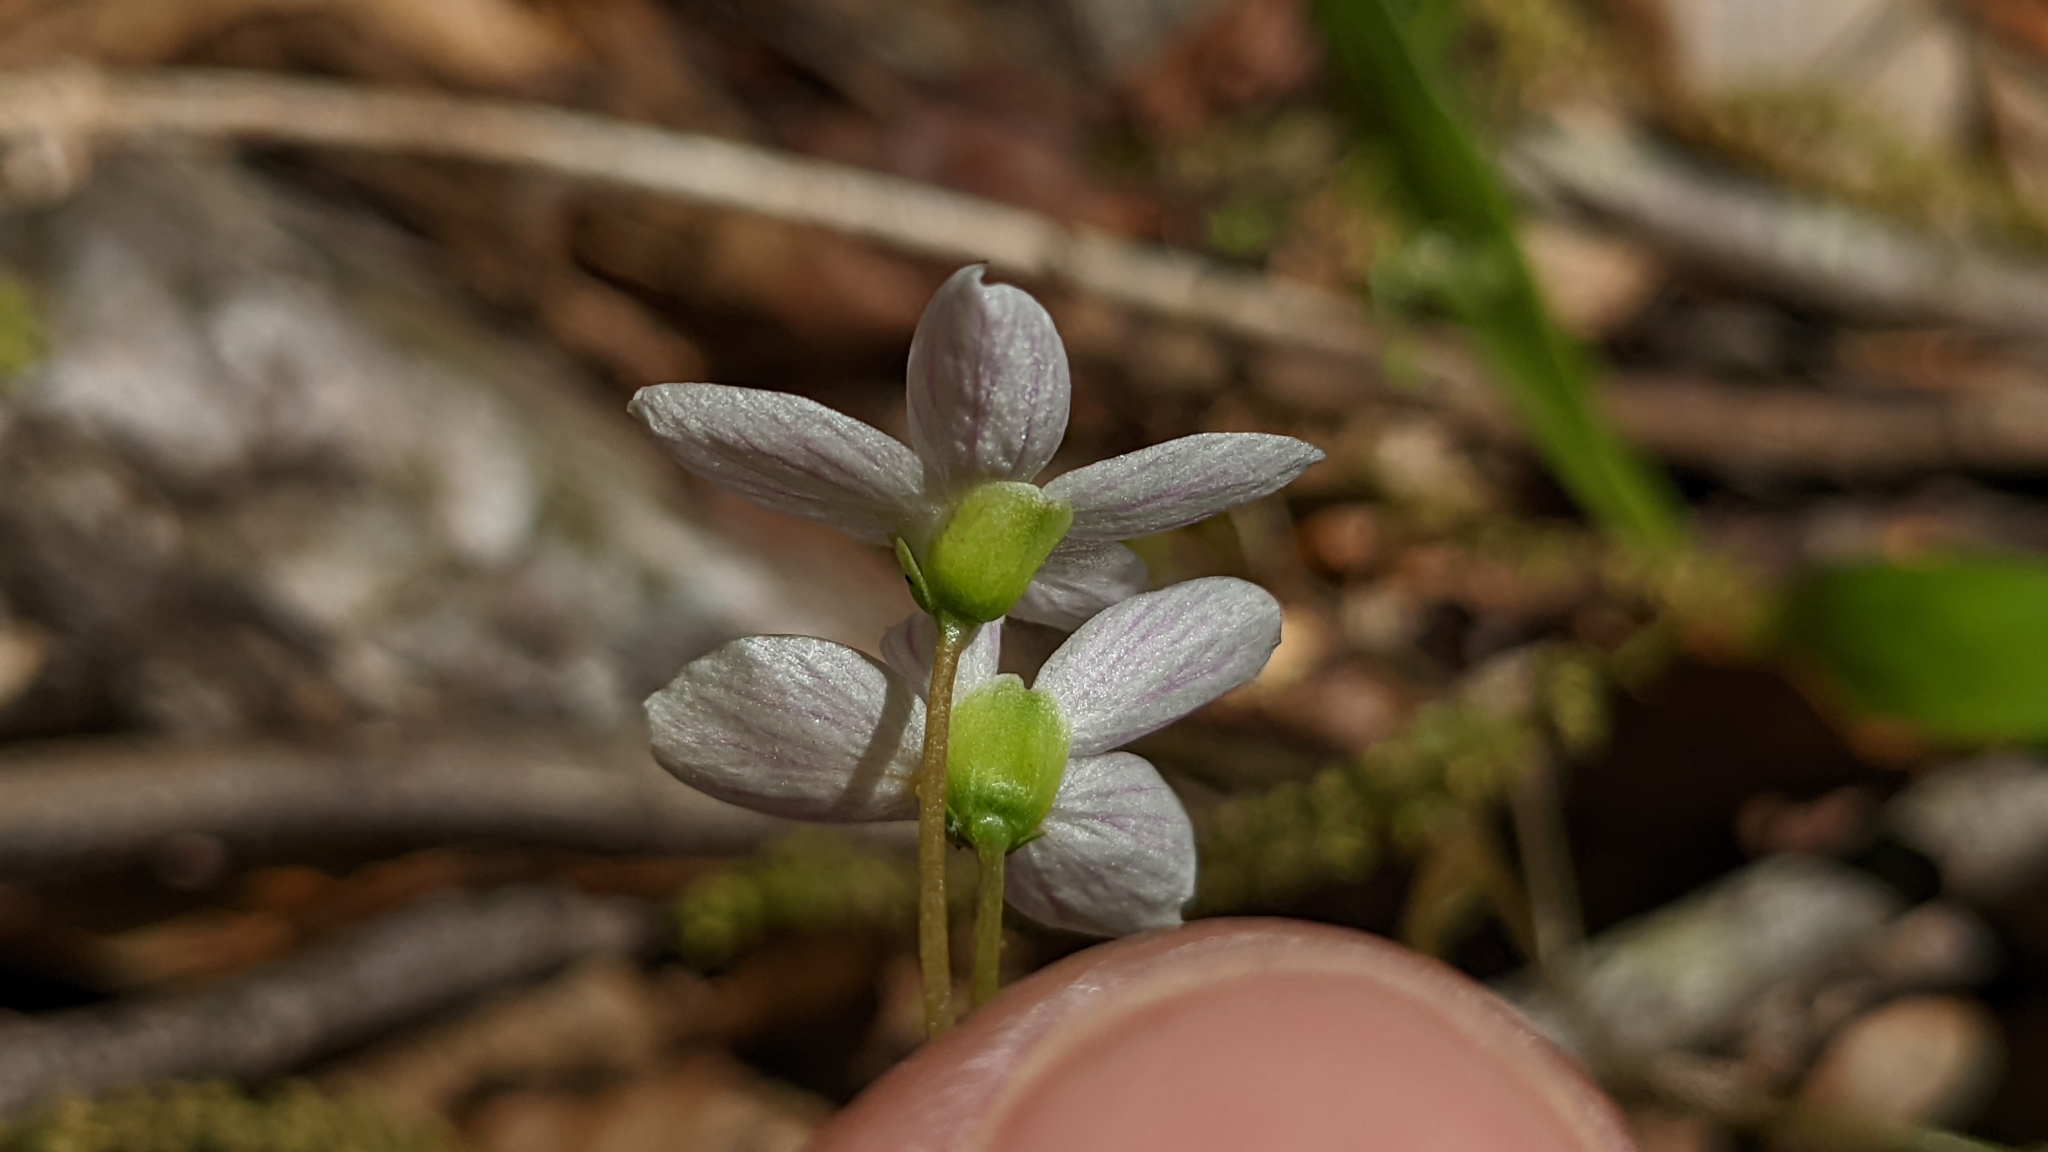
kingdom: Plantae
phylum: Tracheophyta
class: Magnoliopsida
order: Caryophyllales
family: Montiaceae
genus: Claytonia
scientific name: Claytonia virginica
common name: Virginia springbeauty
